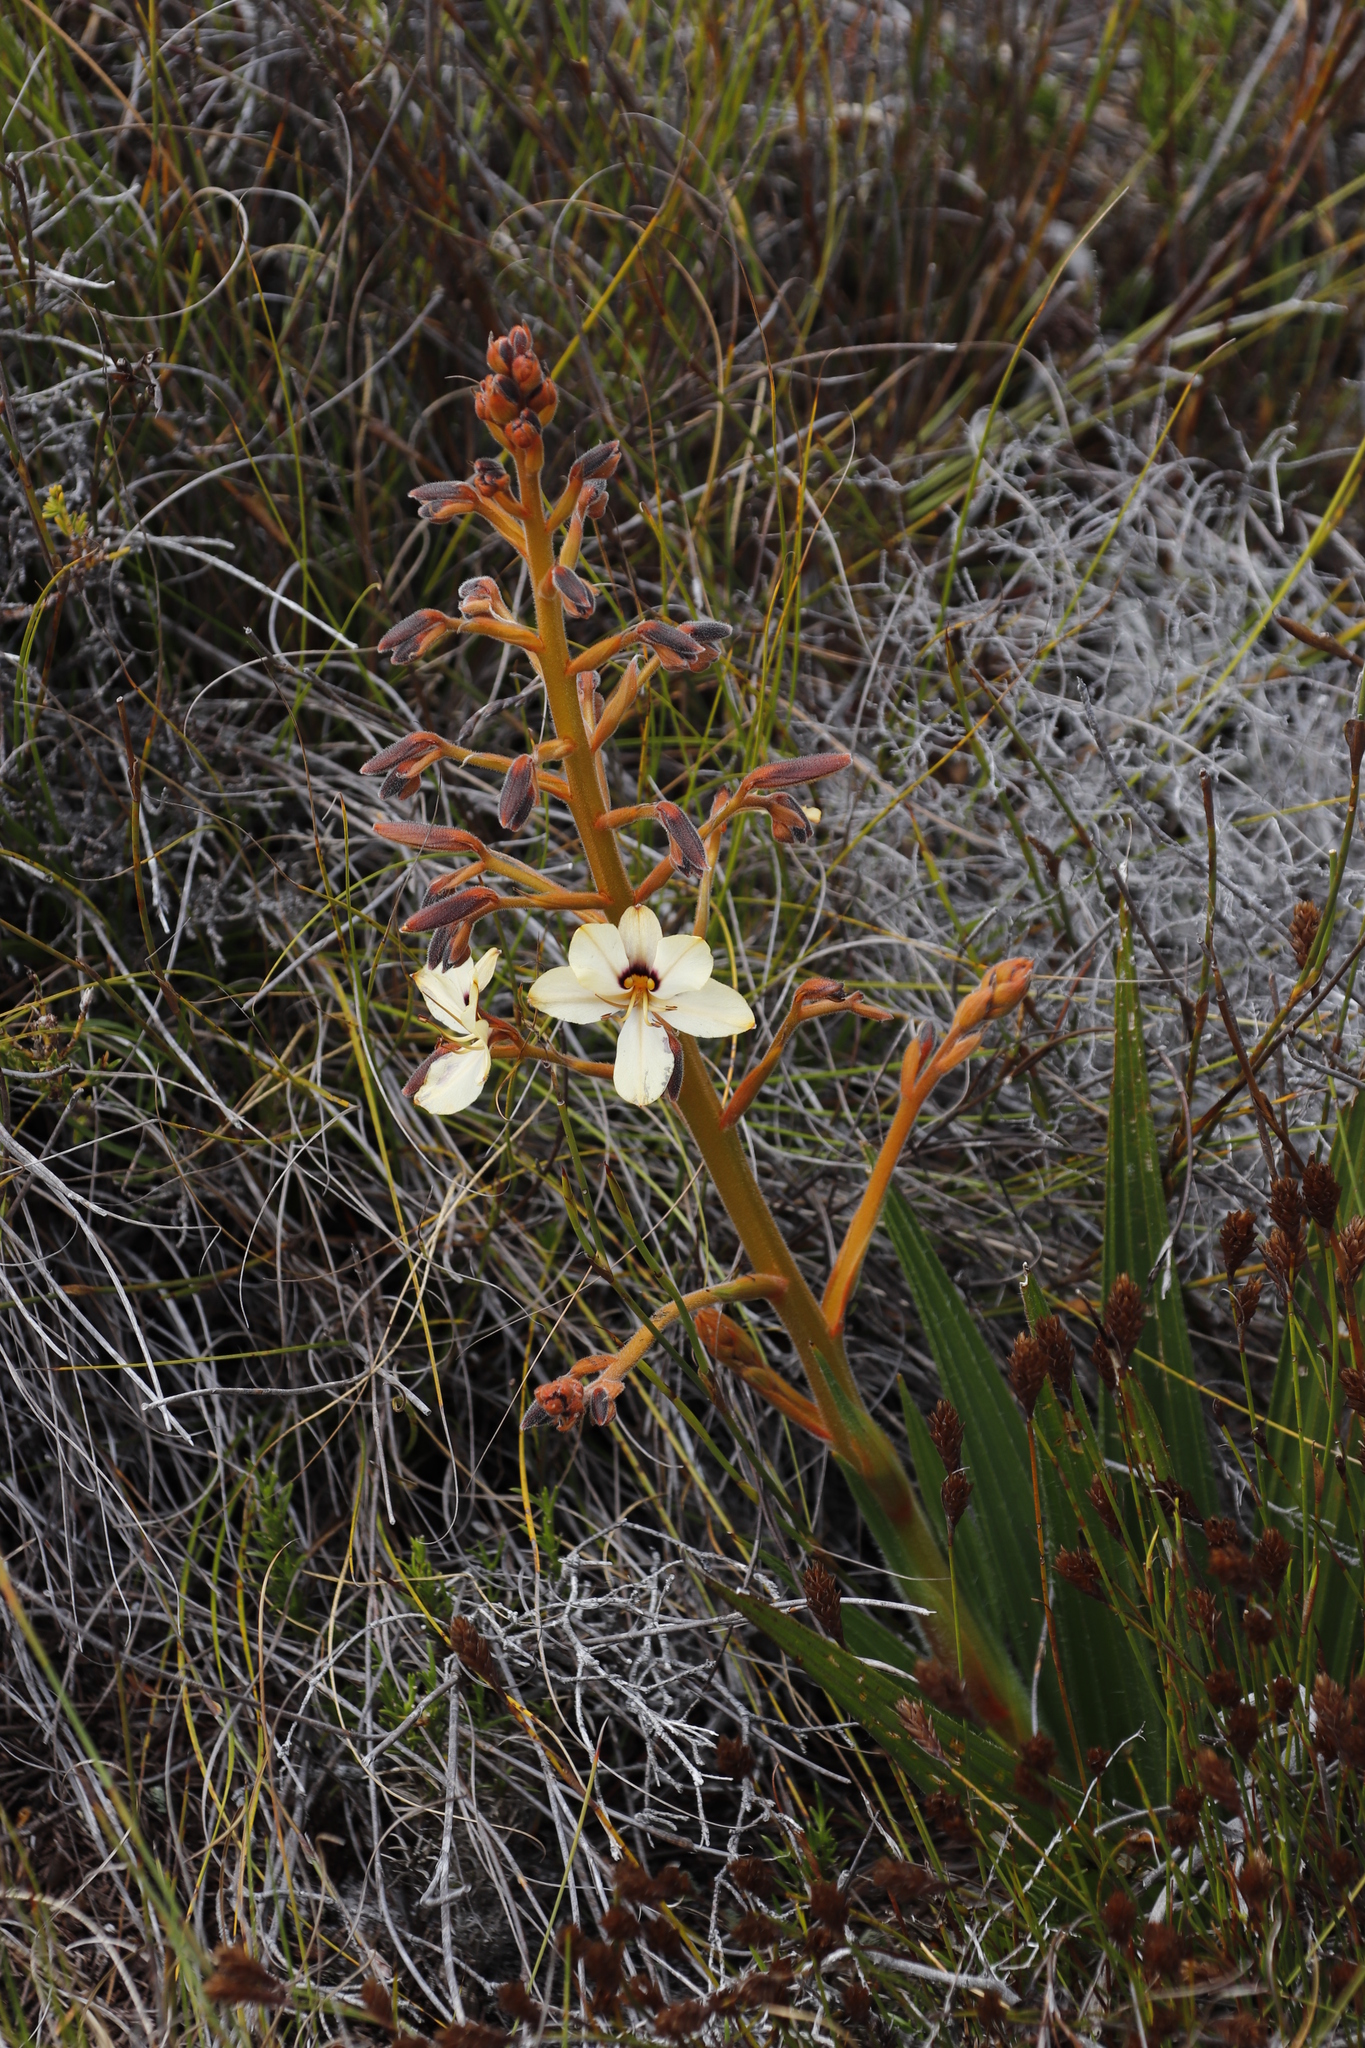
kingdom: Plantae
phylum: Tracheophyta
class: Liliopsida
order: Commelinales
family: Haemodoraceae
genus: Wachendorfia
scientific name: Wachendorfia paniculata
